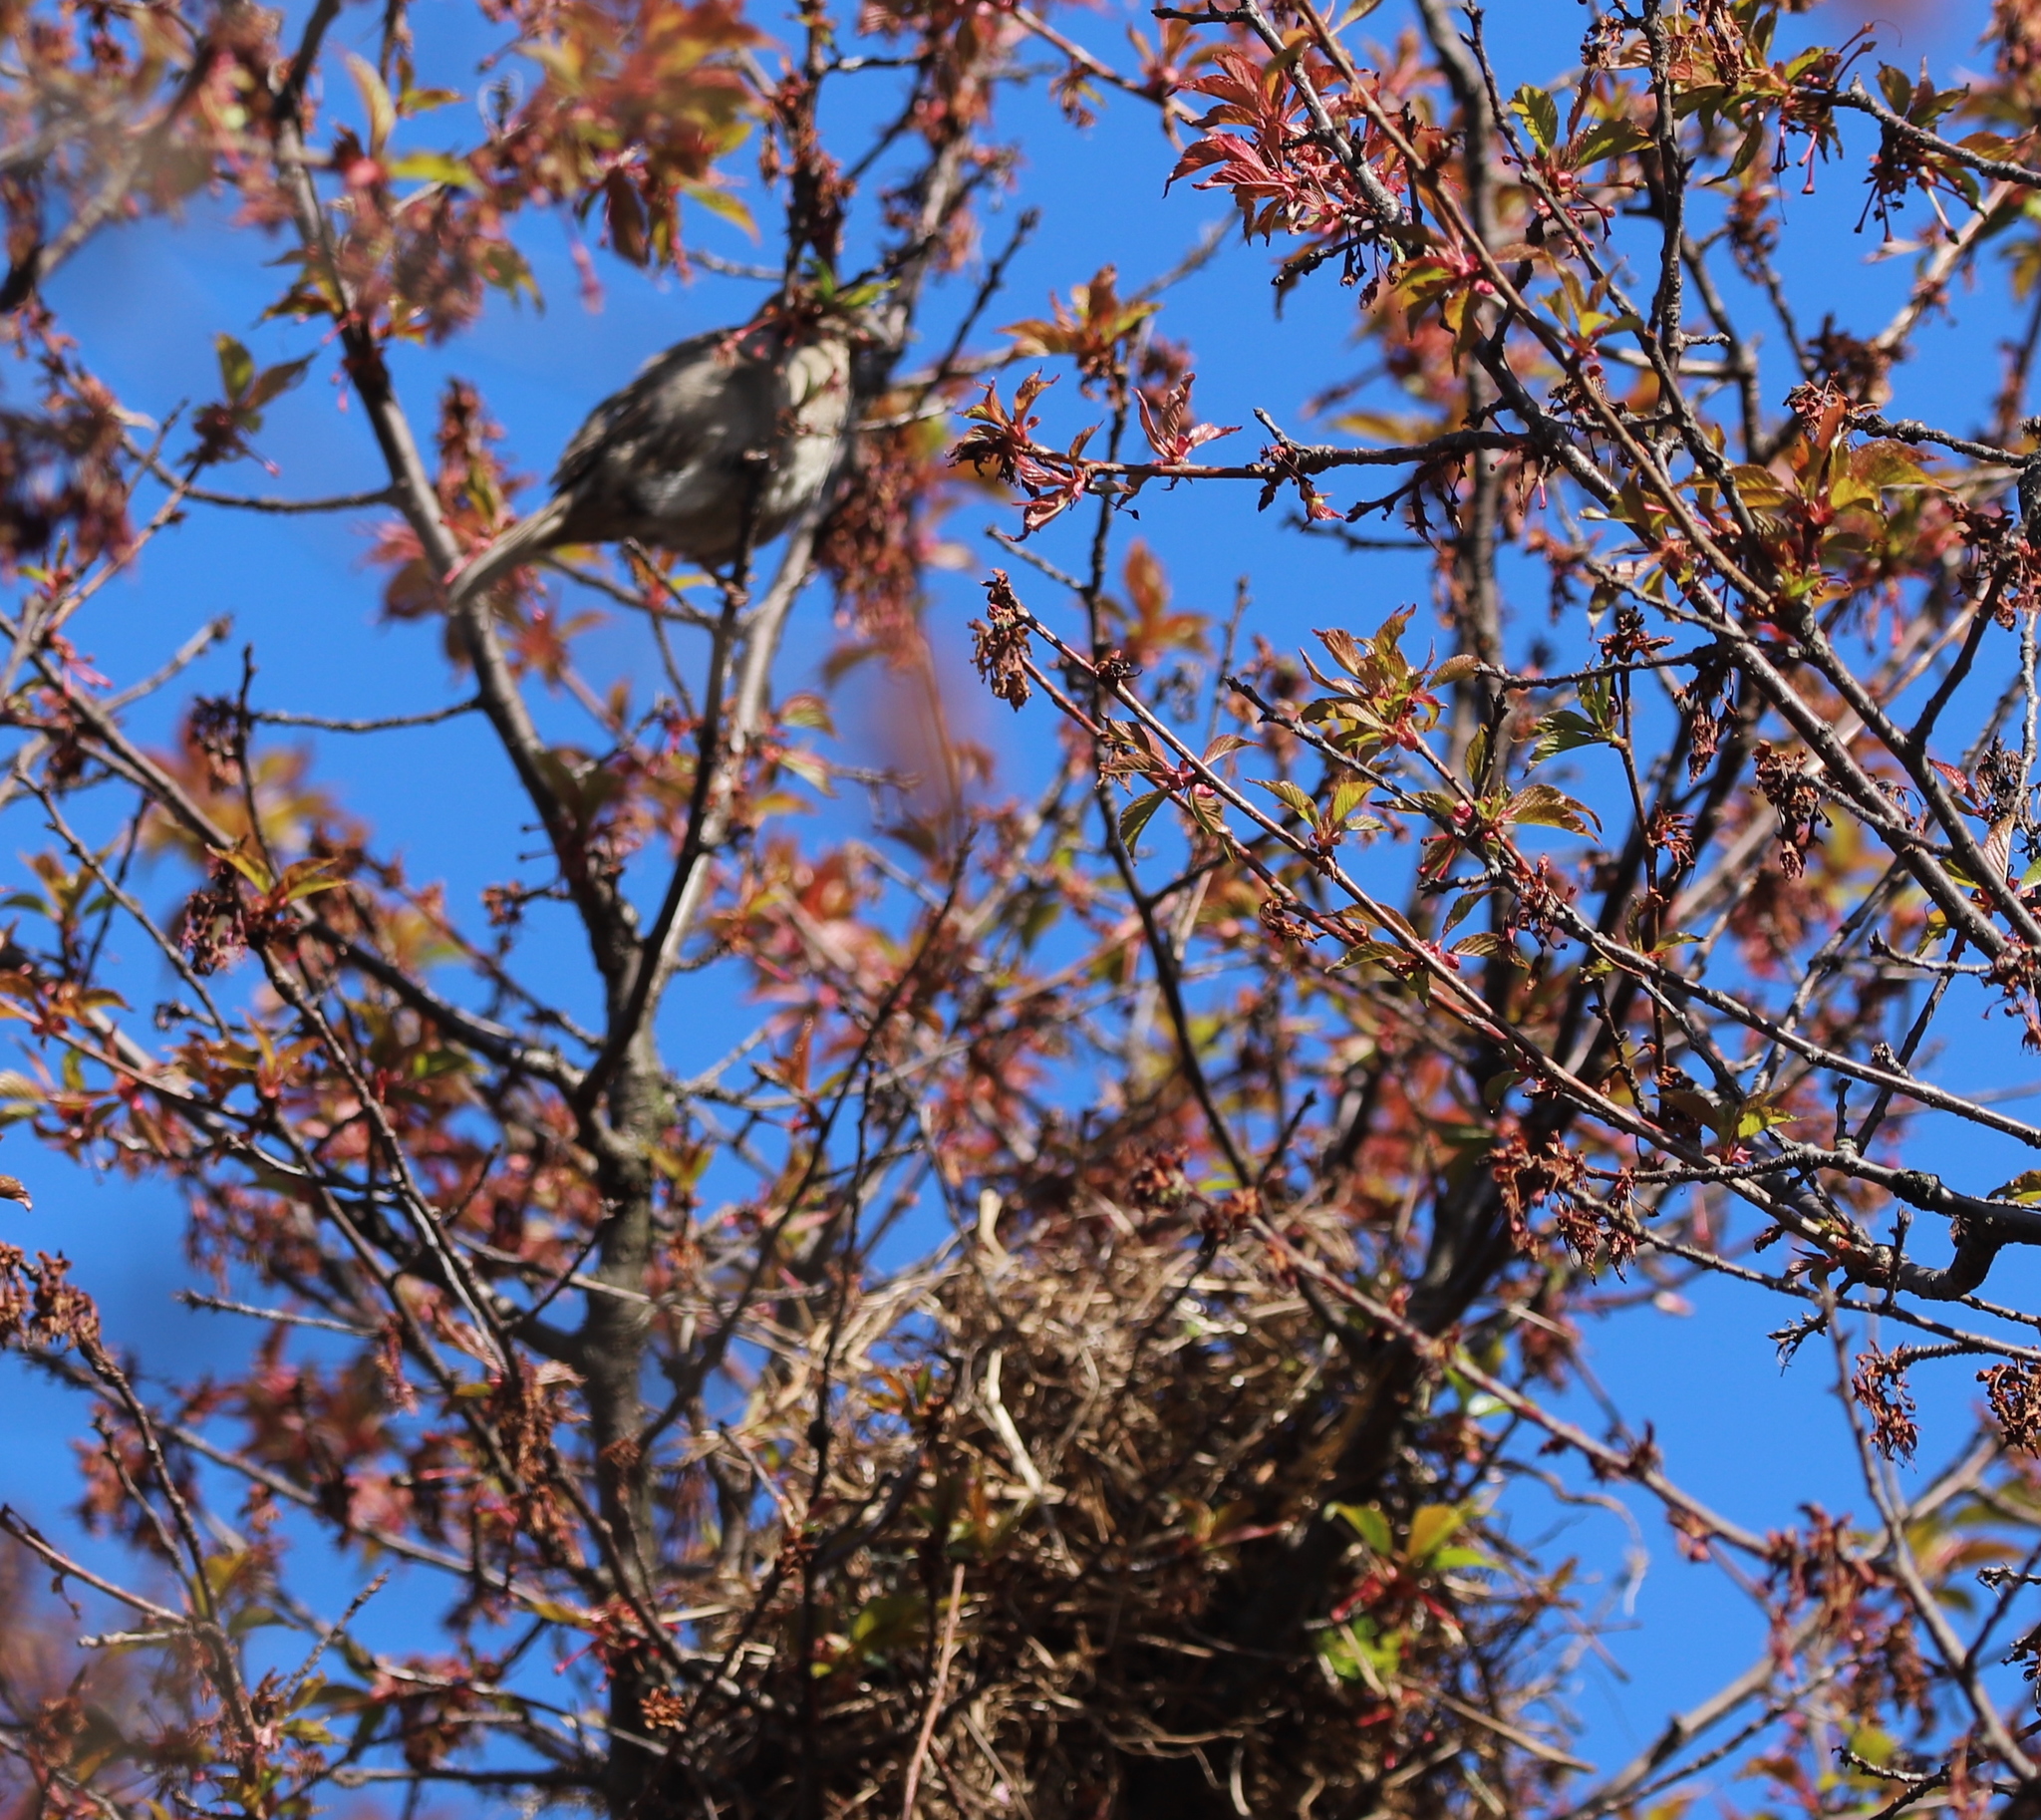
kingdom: Animalia
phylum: Chordata
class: Aves
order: Passeriformes
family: Passeridae
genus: Passer
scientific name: Passer domesticus
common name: House sparrow
